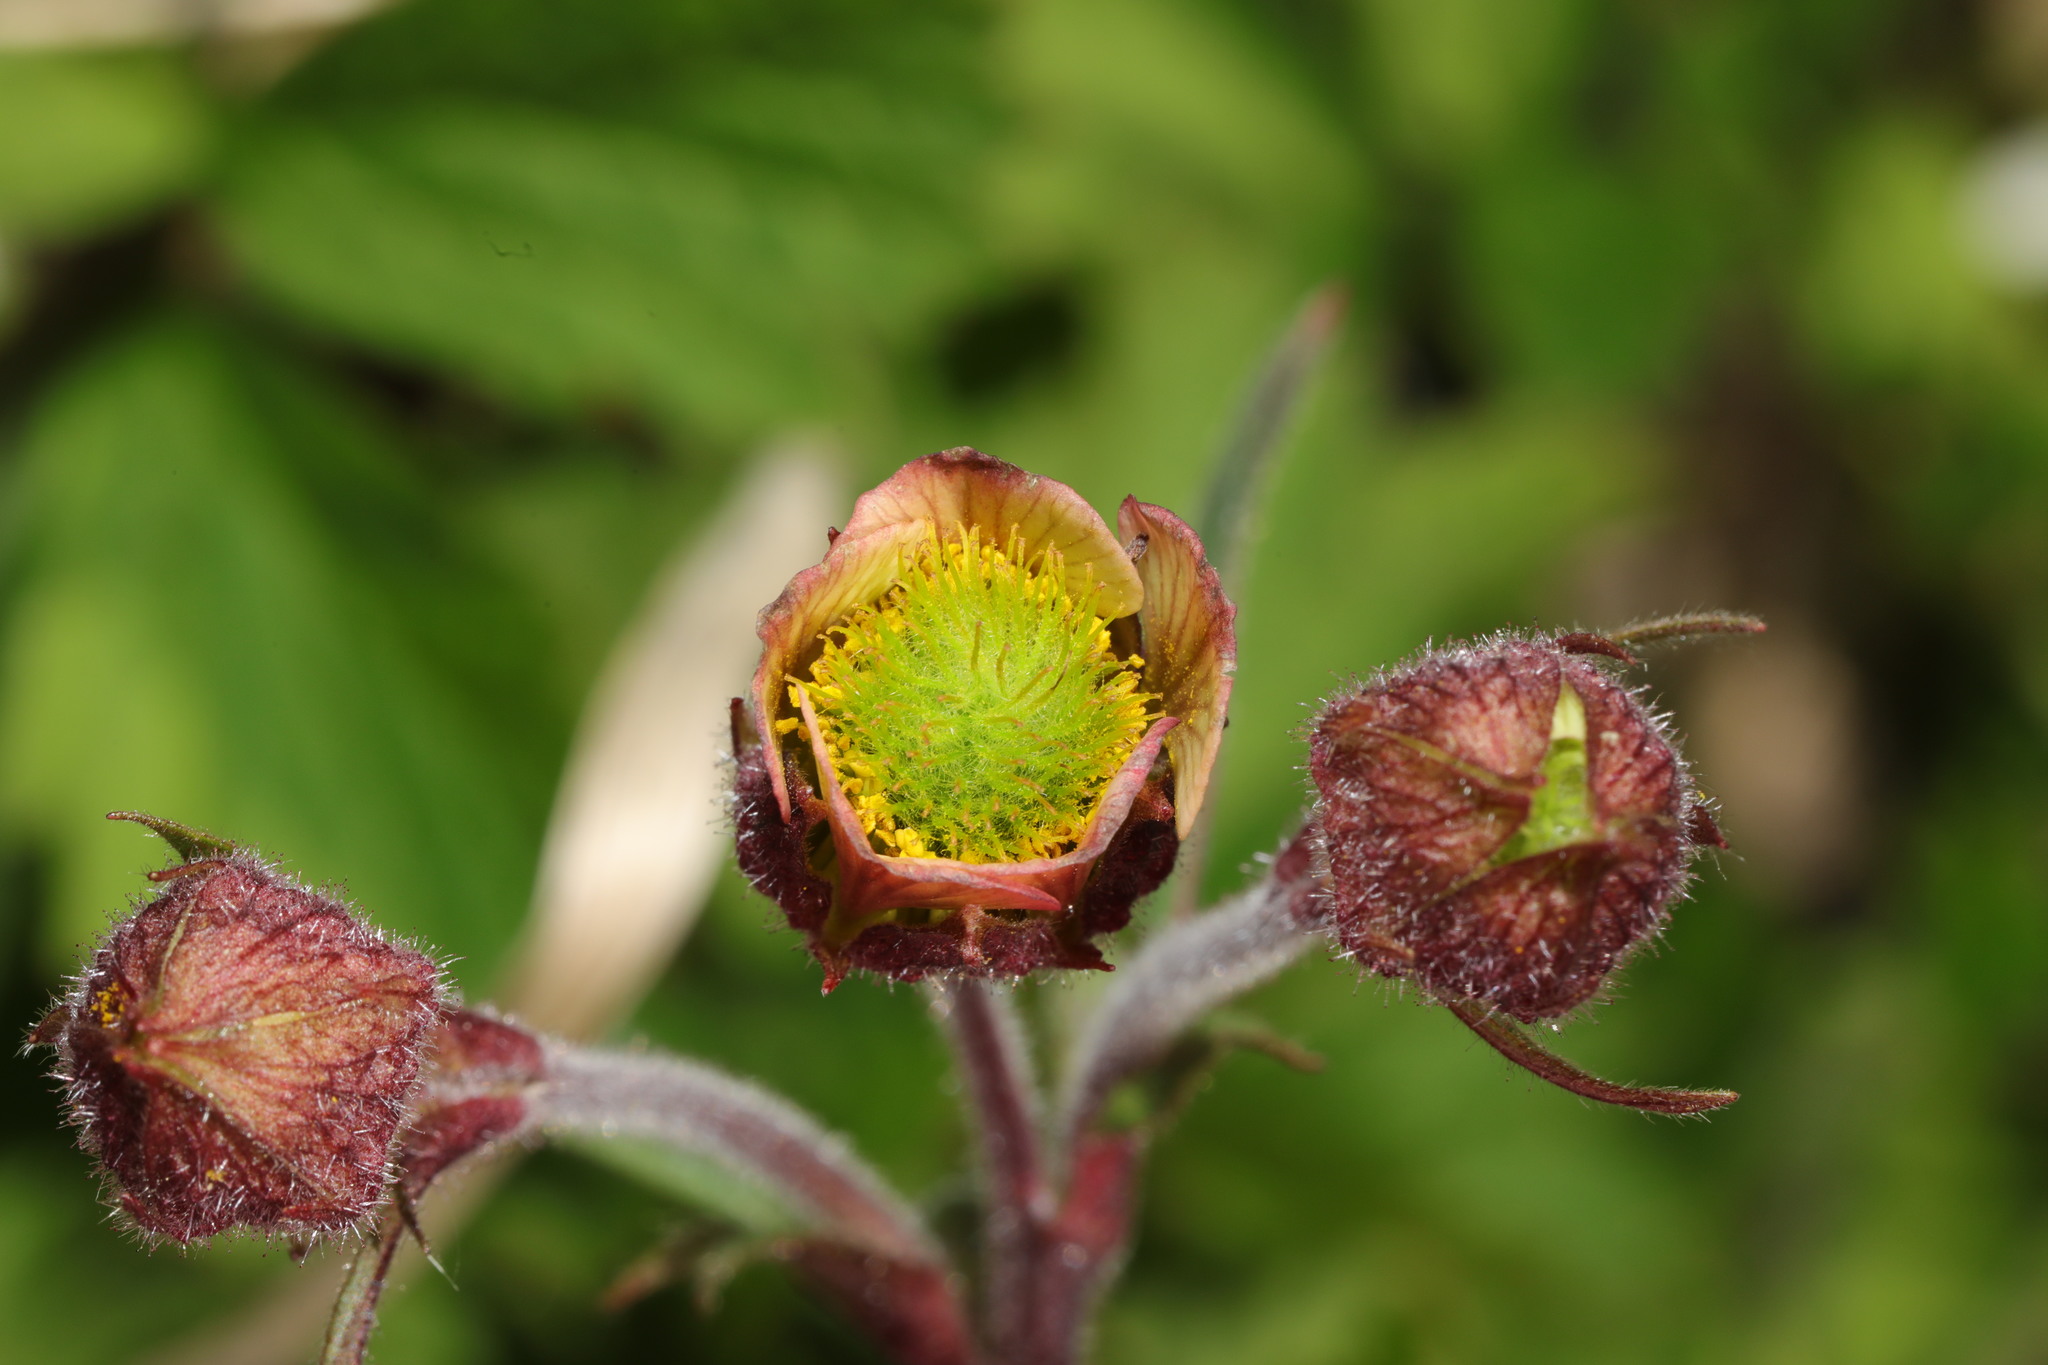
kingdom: Plantae
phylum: Tracheophyta
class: Magnoliopsida
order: Rosales
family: Rosaceae
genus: Geum
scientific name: Geum rivale
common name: Water avens
